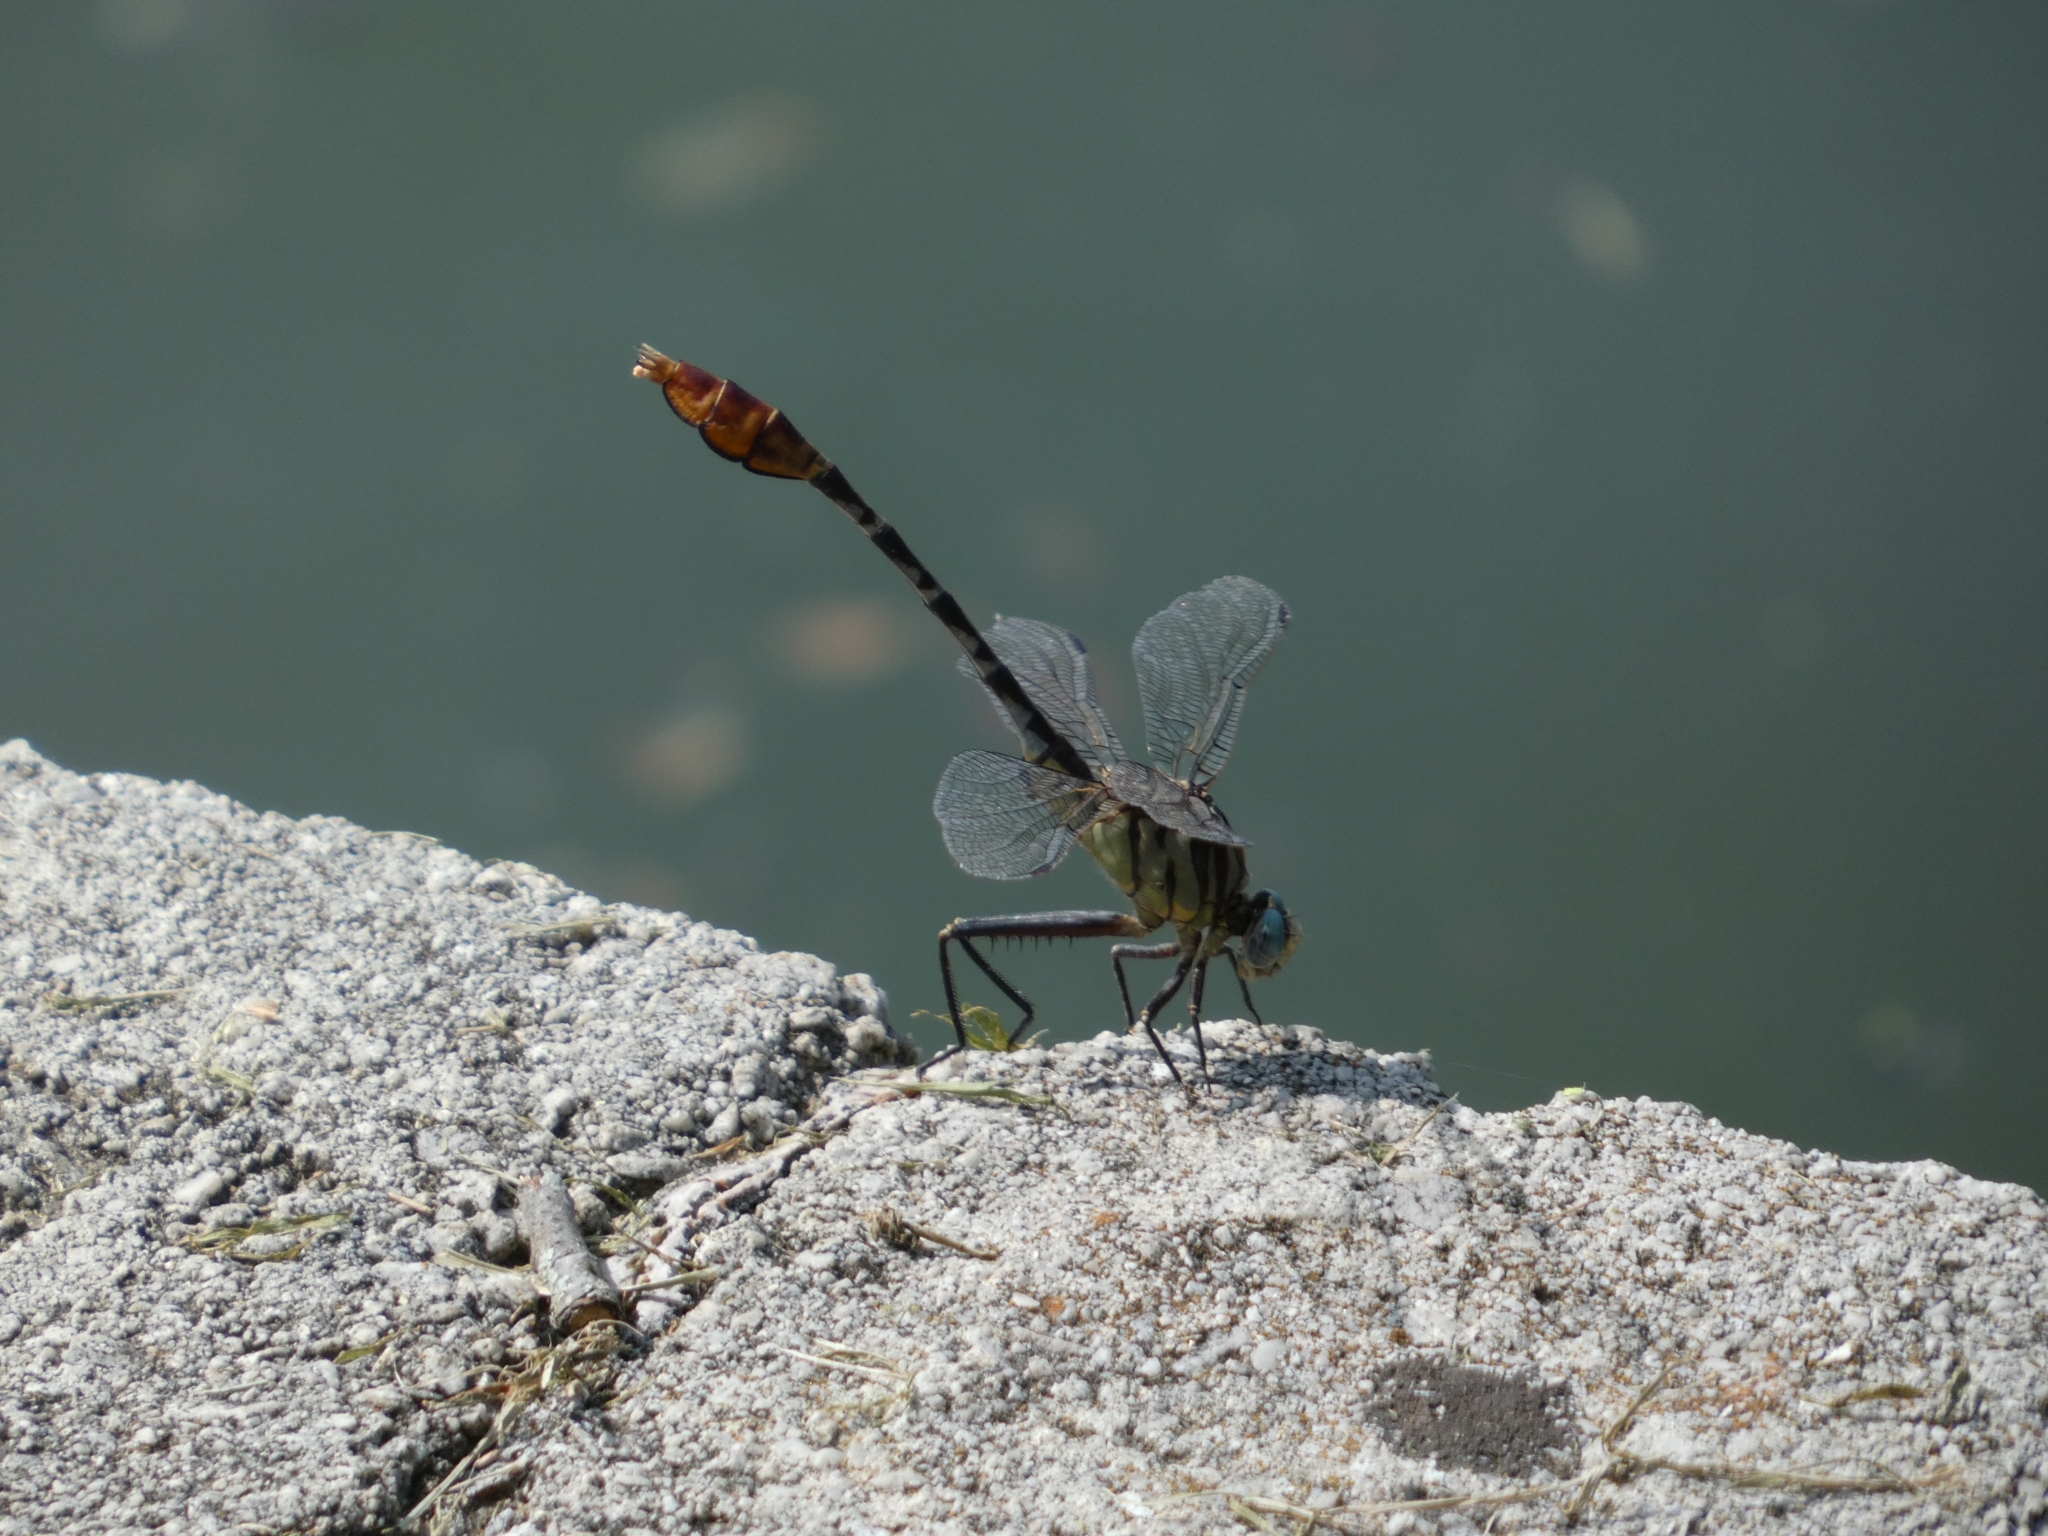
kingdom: Animalia
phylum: Arthropoda
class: Insecta
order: Odonata
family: Gomphidae
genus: Dromogomphus
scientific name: Dromogomphus spoliatus
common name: Flag-tailed spinyleg
